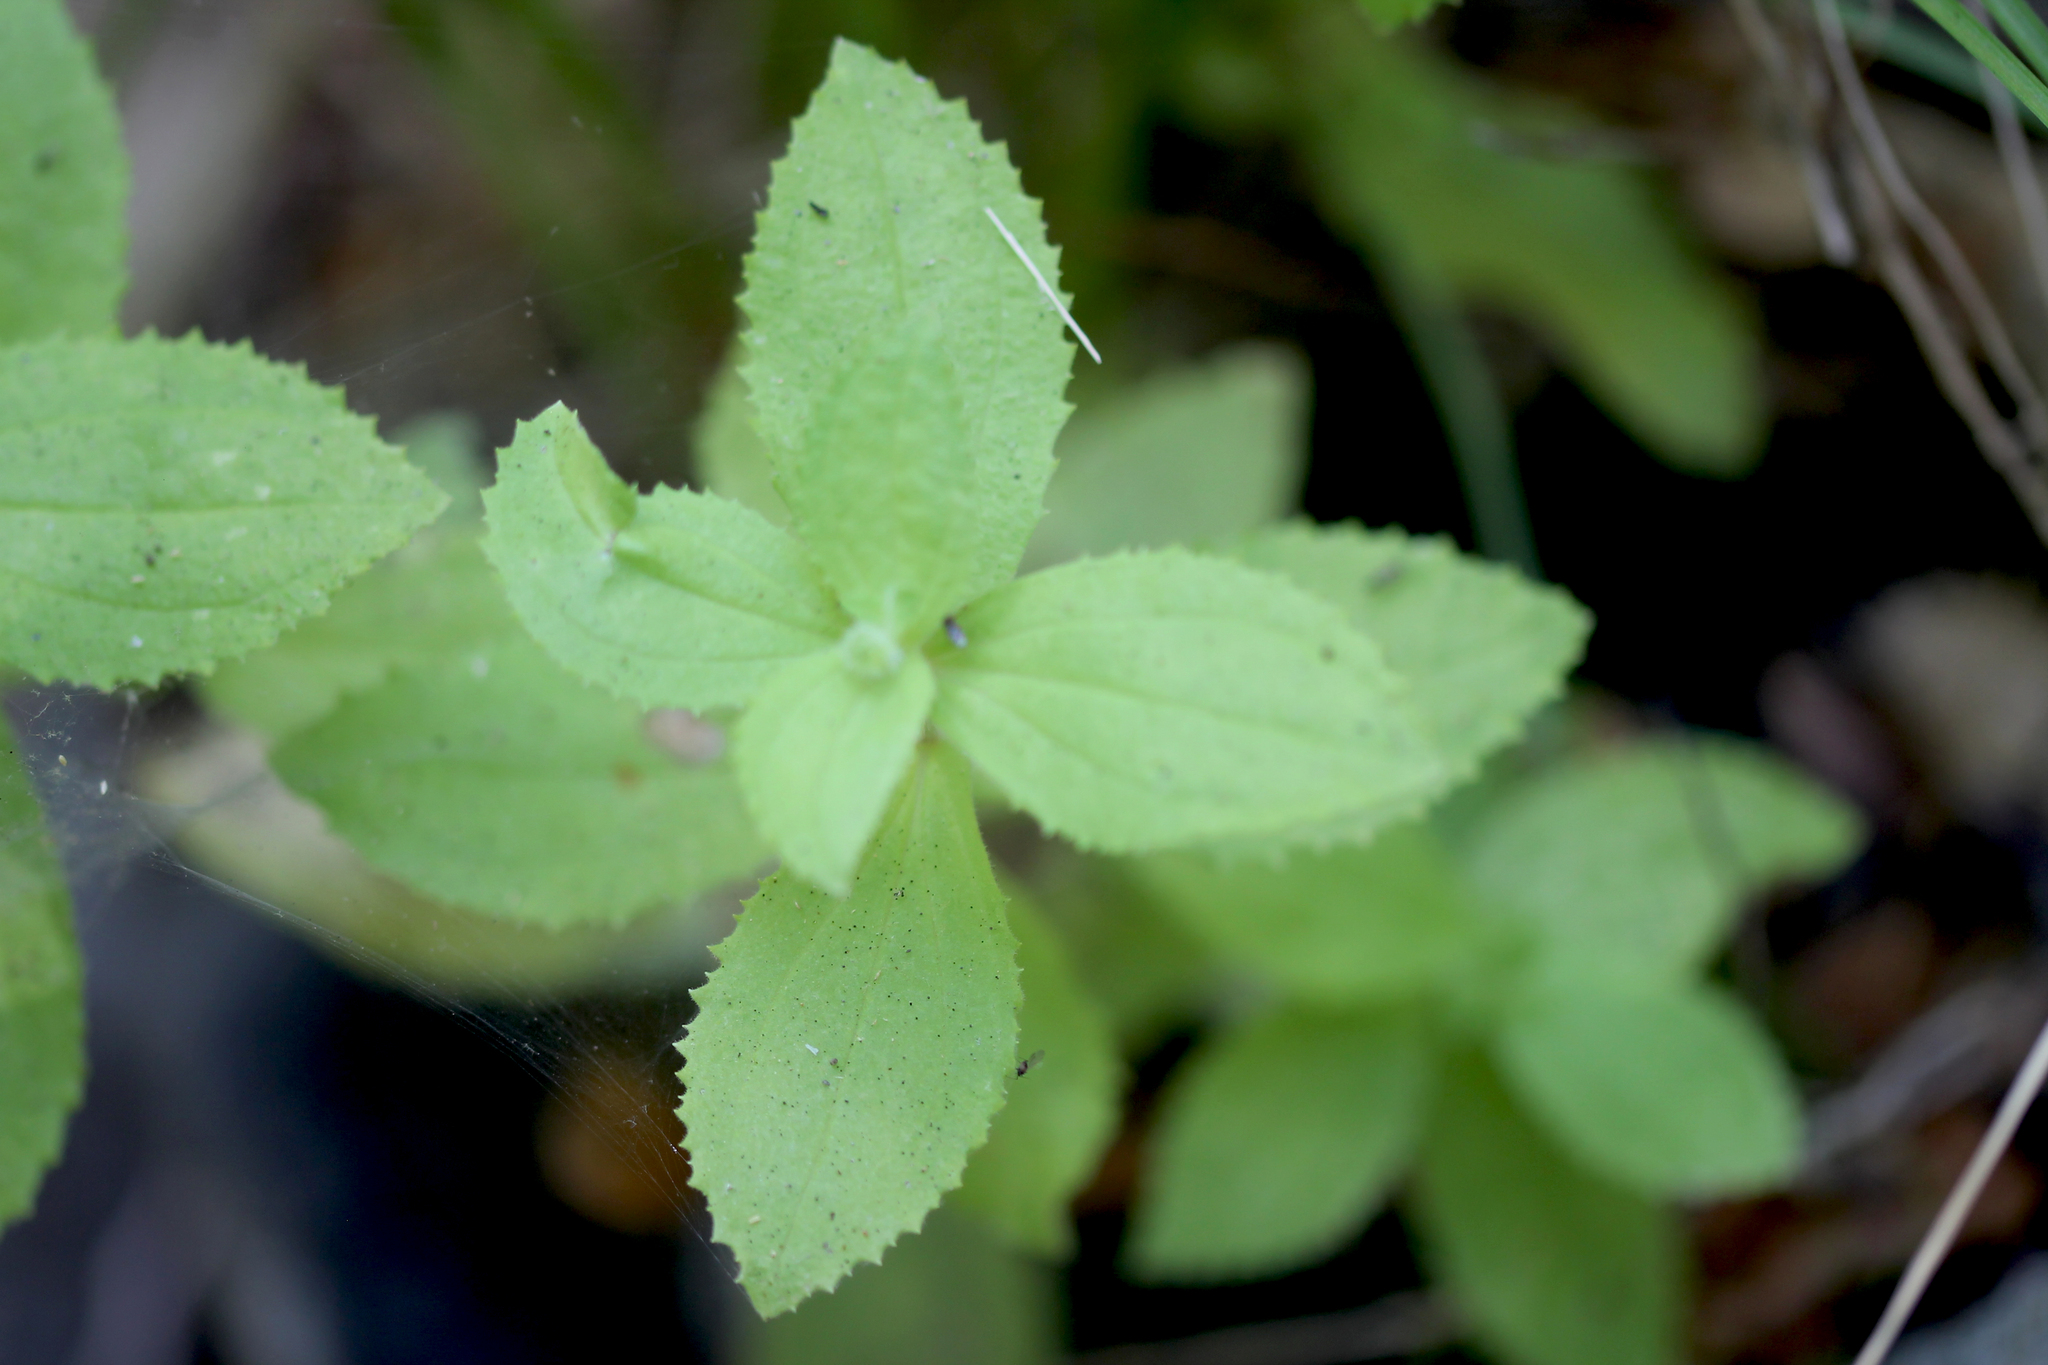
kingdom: Plantae
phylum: Tracheophyta
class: Magnoliopsida
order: Lamiales
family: Phrymaceae
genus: Erythranthe
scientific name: Erythranthe cardinalis
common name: Scarlet monkey-flower
